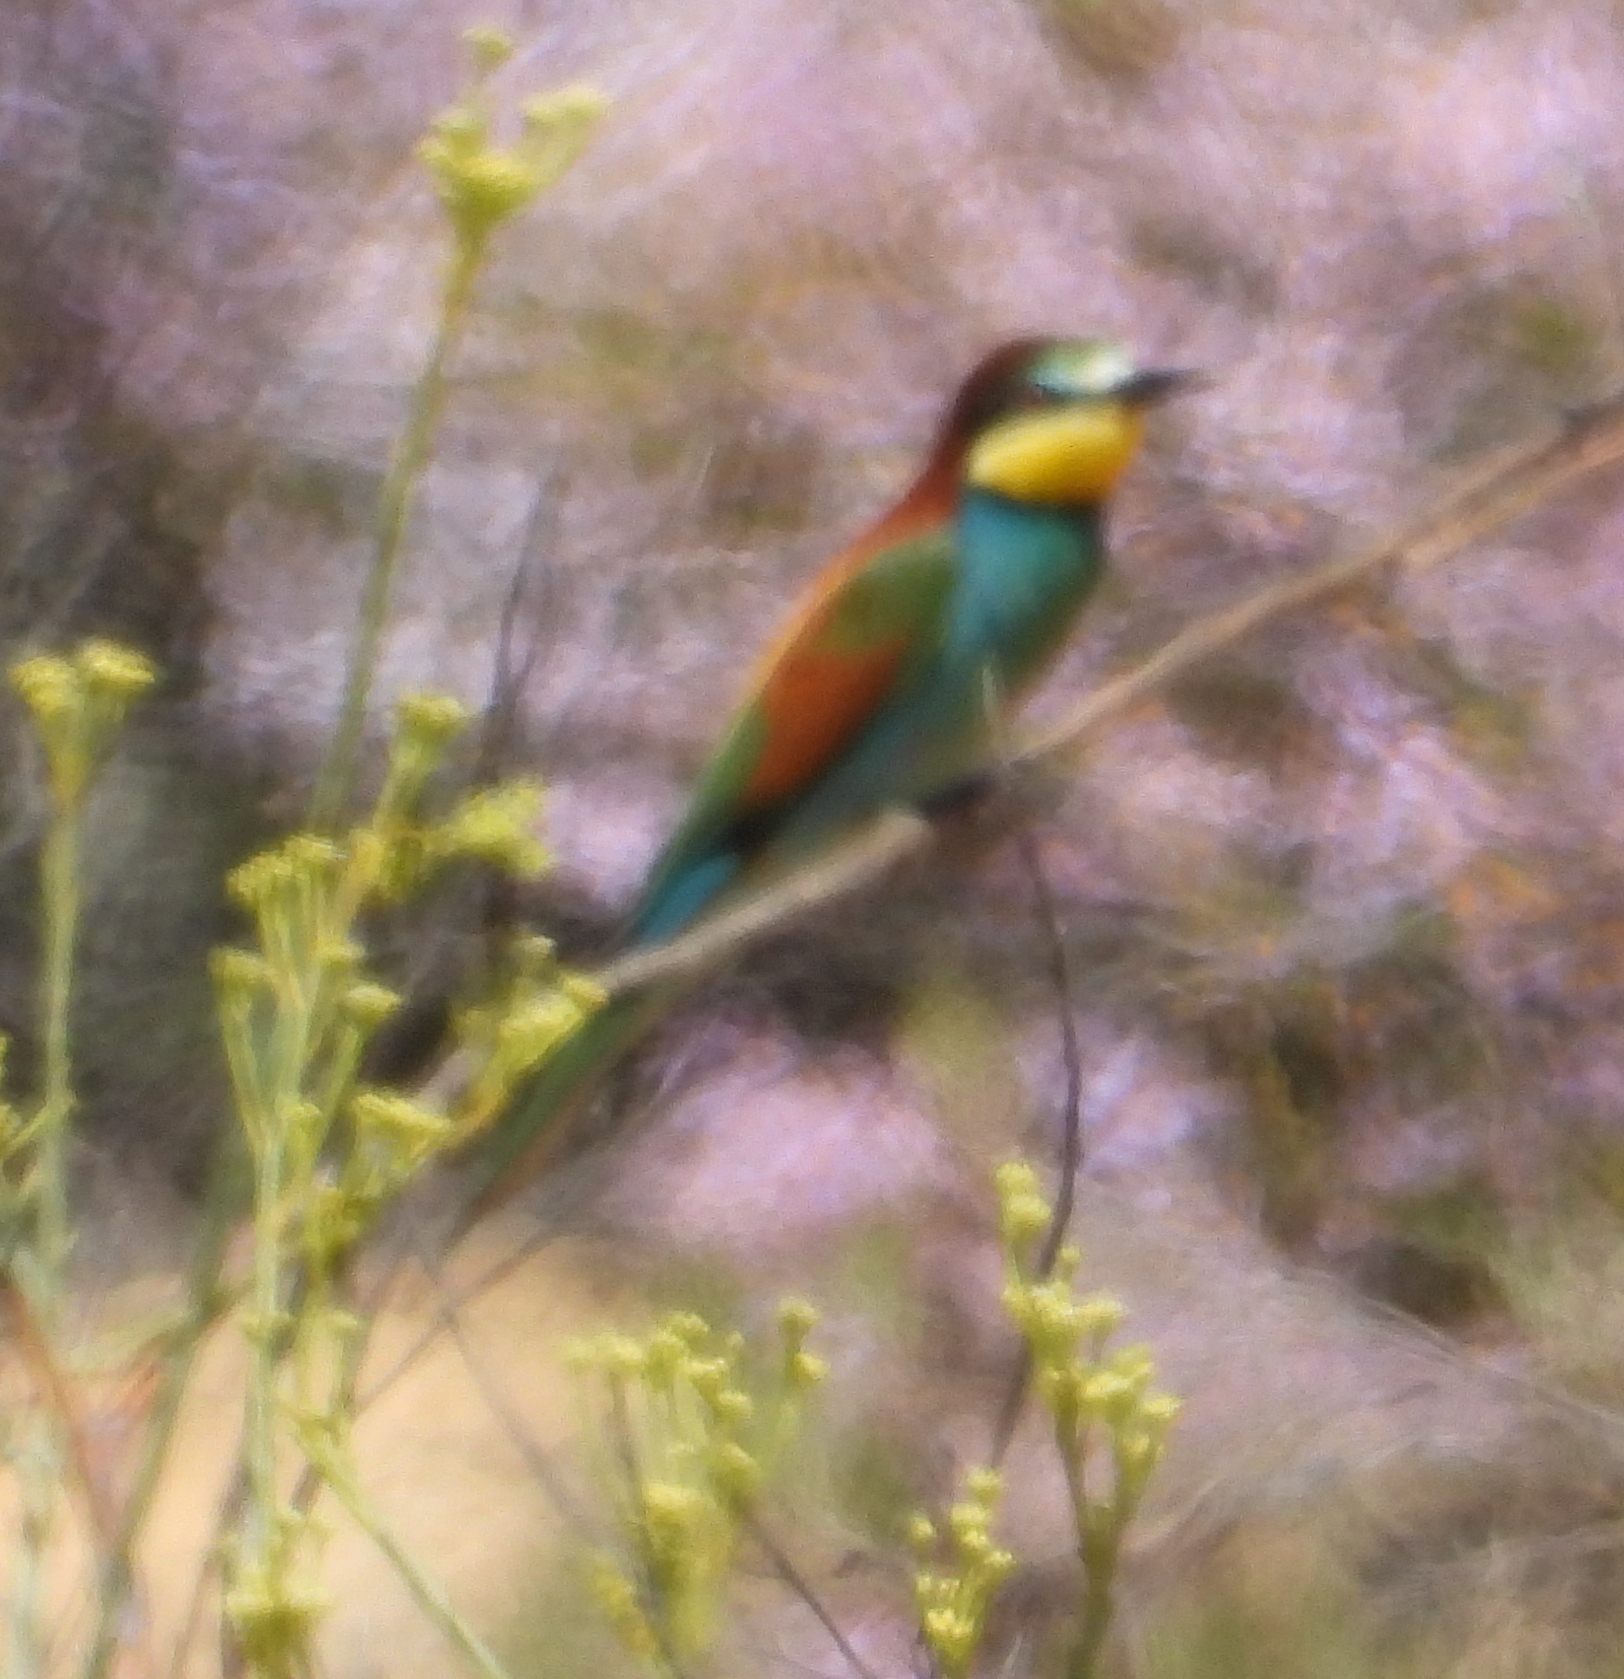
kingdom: Animalia
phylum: Chordata
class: Aves
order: Coraciiformes
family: Meropidae
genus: Merops
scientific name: Merops apiaster
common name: European bee-eater
